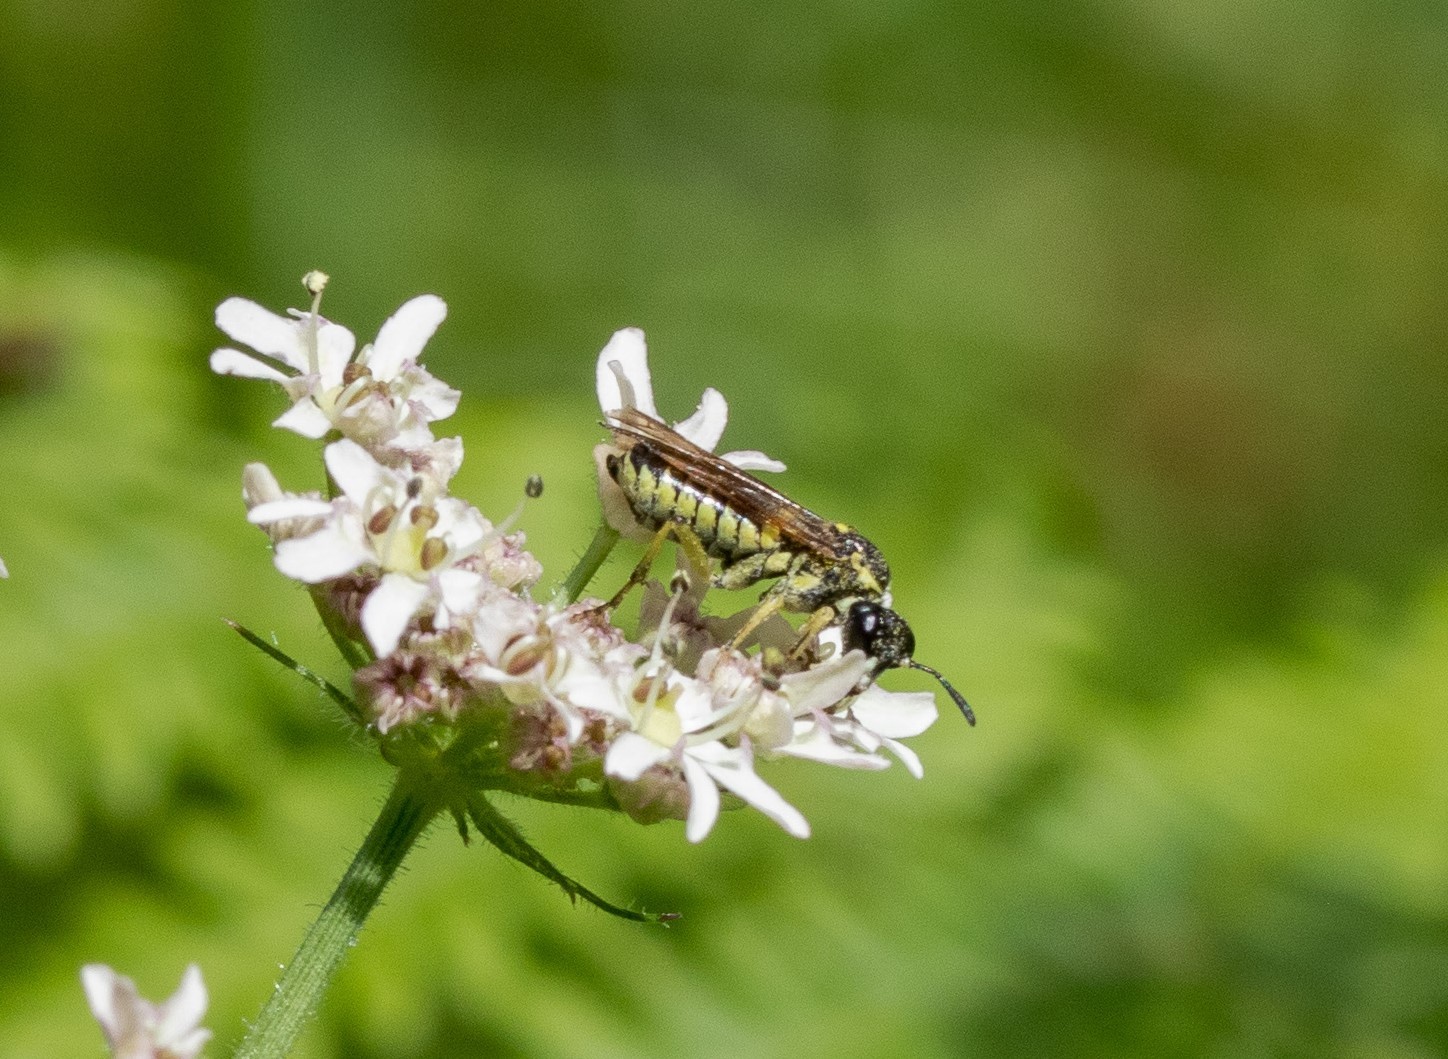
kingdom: Animalia
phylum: Arthropoda
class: Insecta
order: Hymenoptera
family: Tenthredinidae
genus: Tenthredo
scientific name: Tenthredo notha
